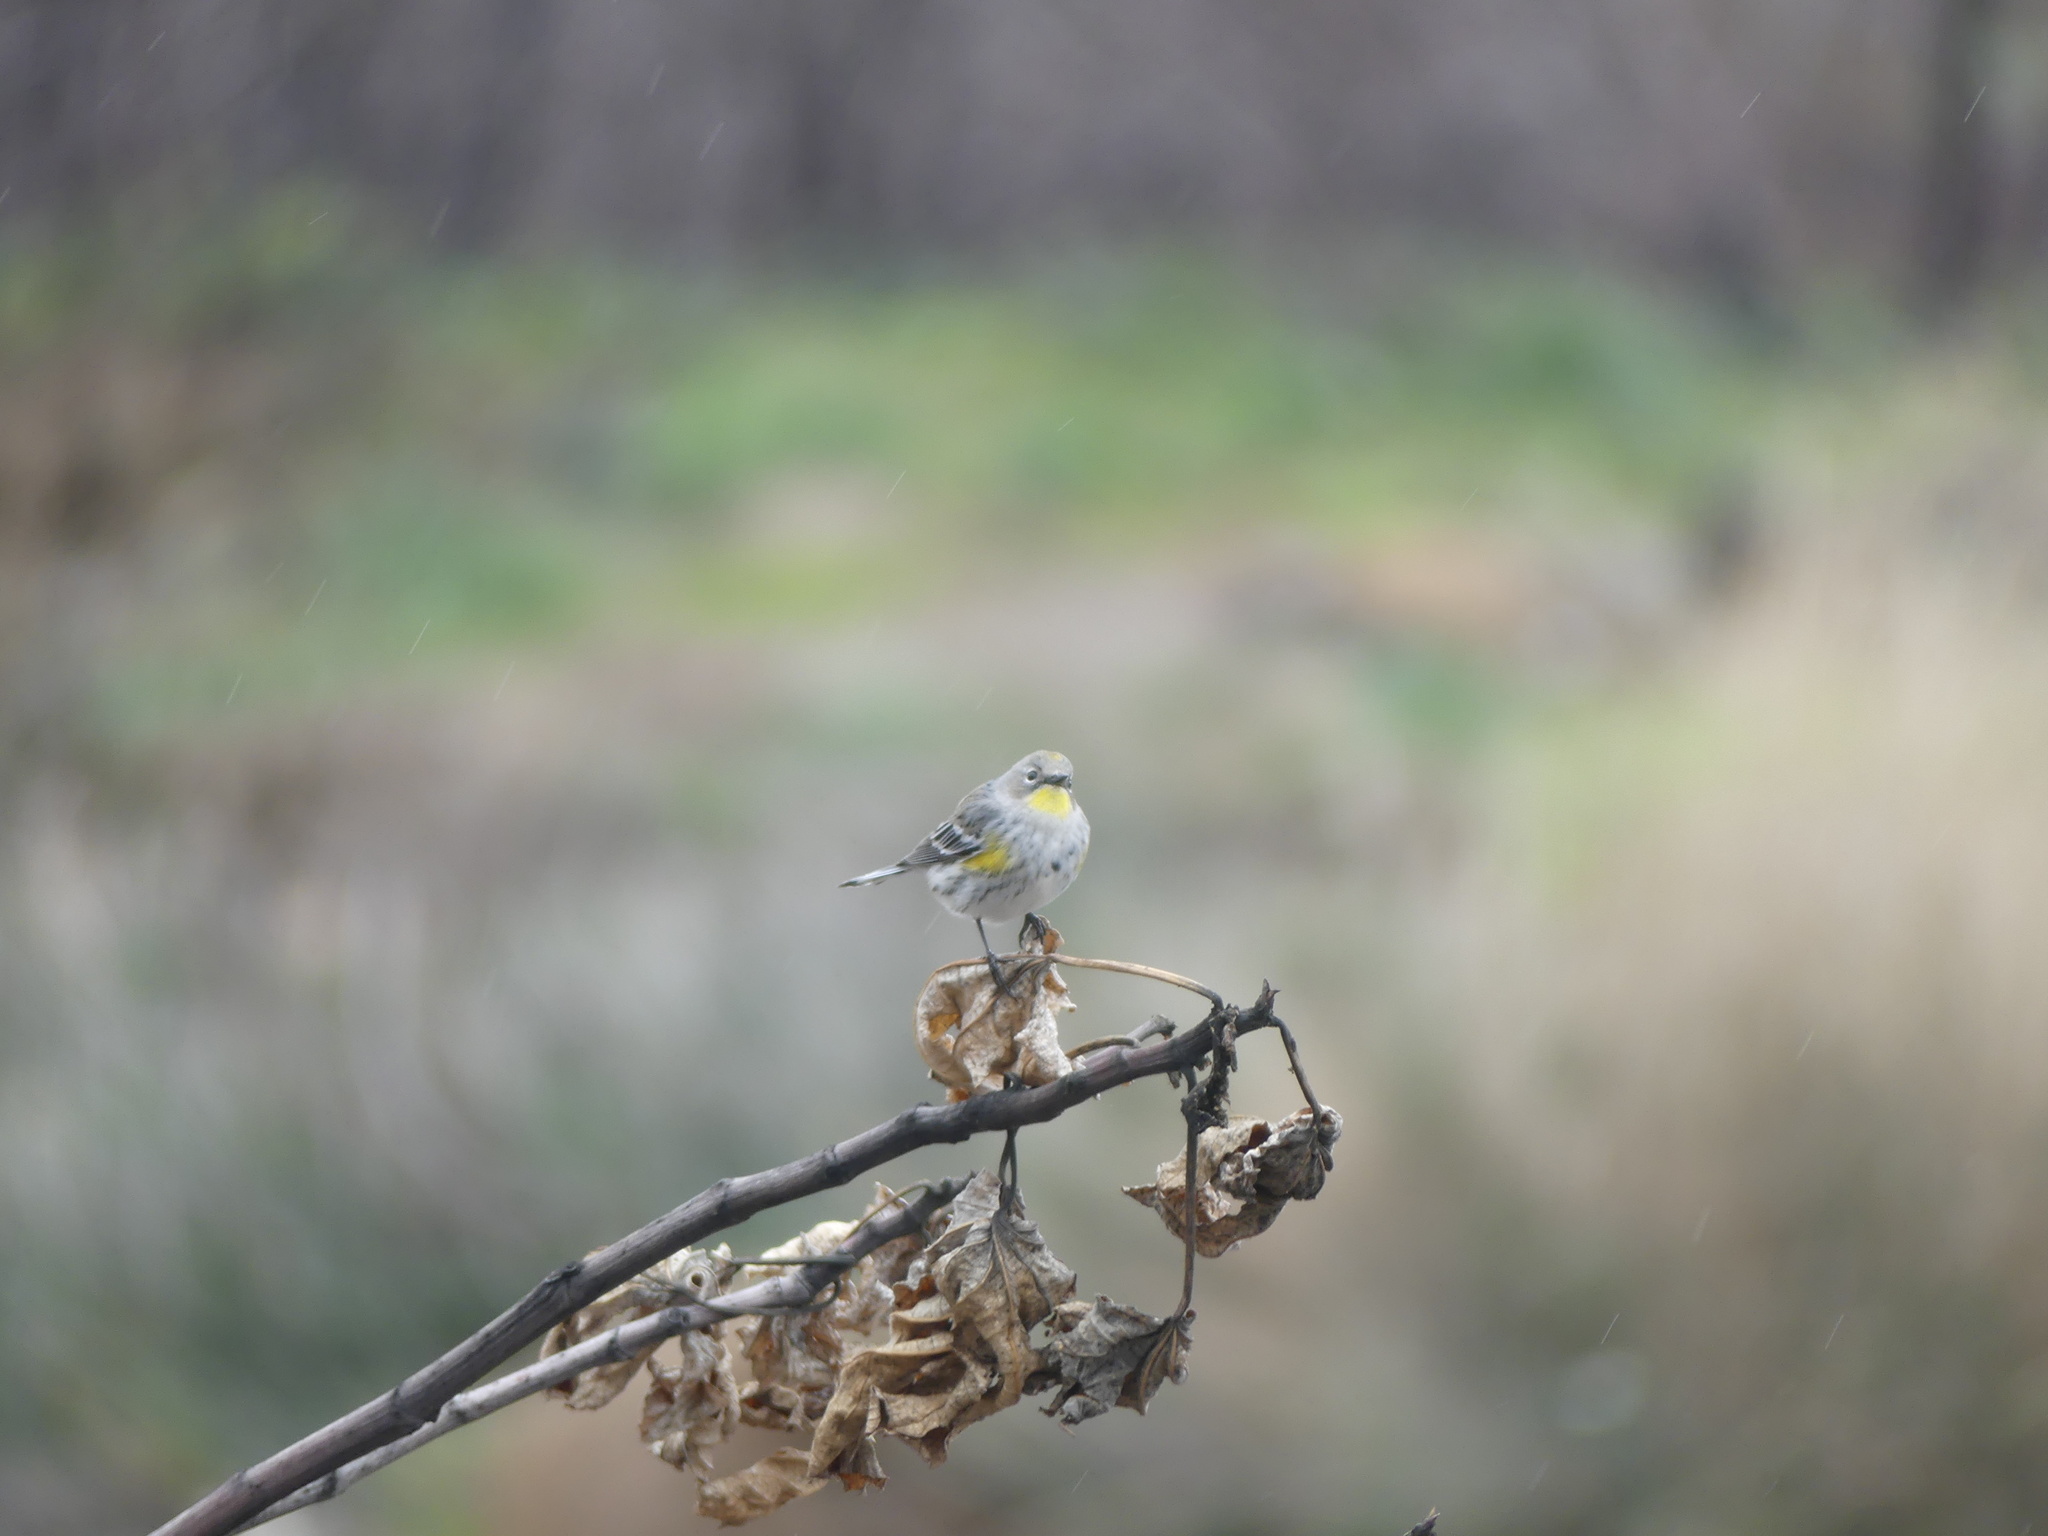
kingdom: Animalia
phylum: Chordata
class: Aves
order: Passeriformes
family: Parulidae
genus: Setophaga
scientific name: Setophaga coronata
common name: Myrtle warbler
